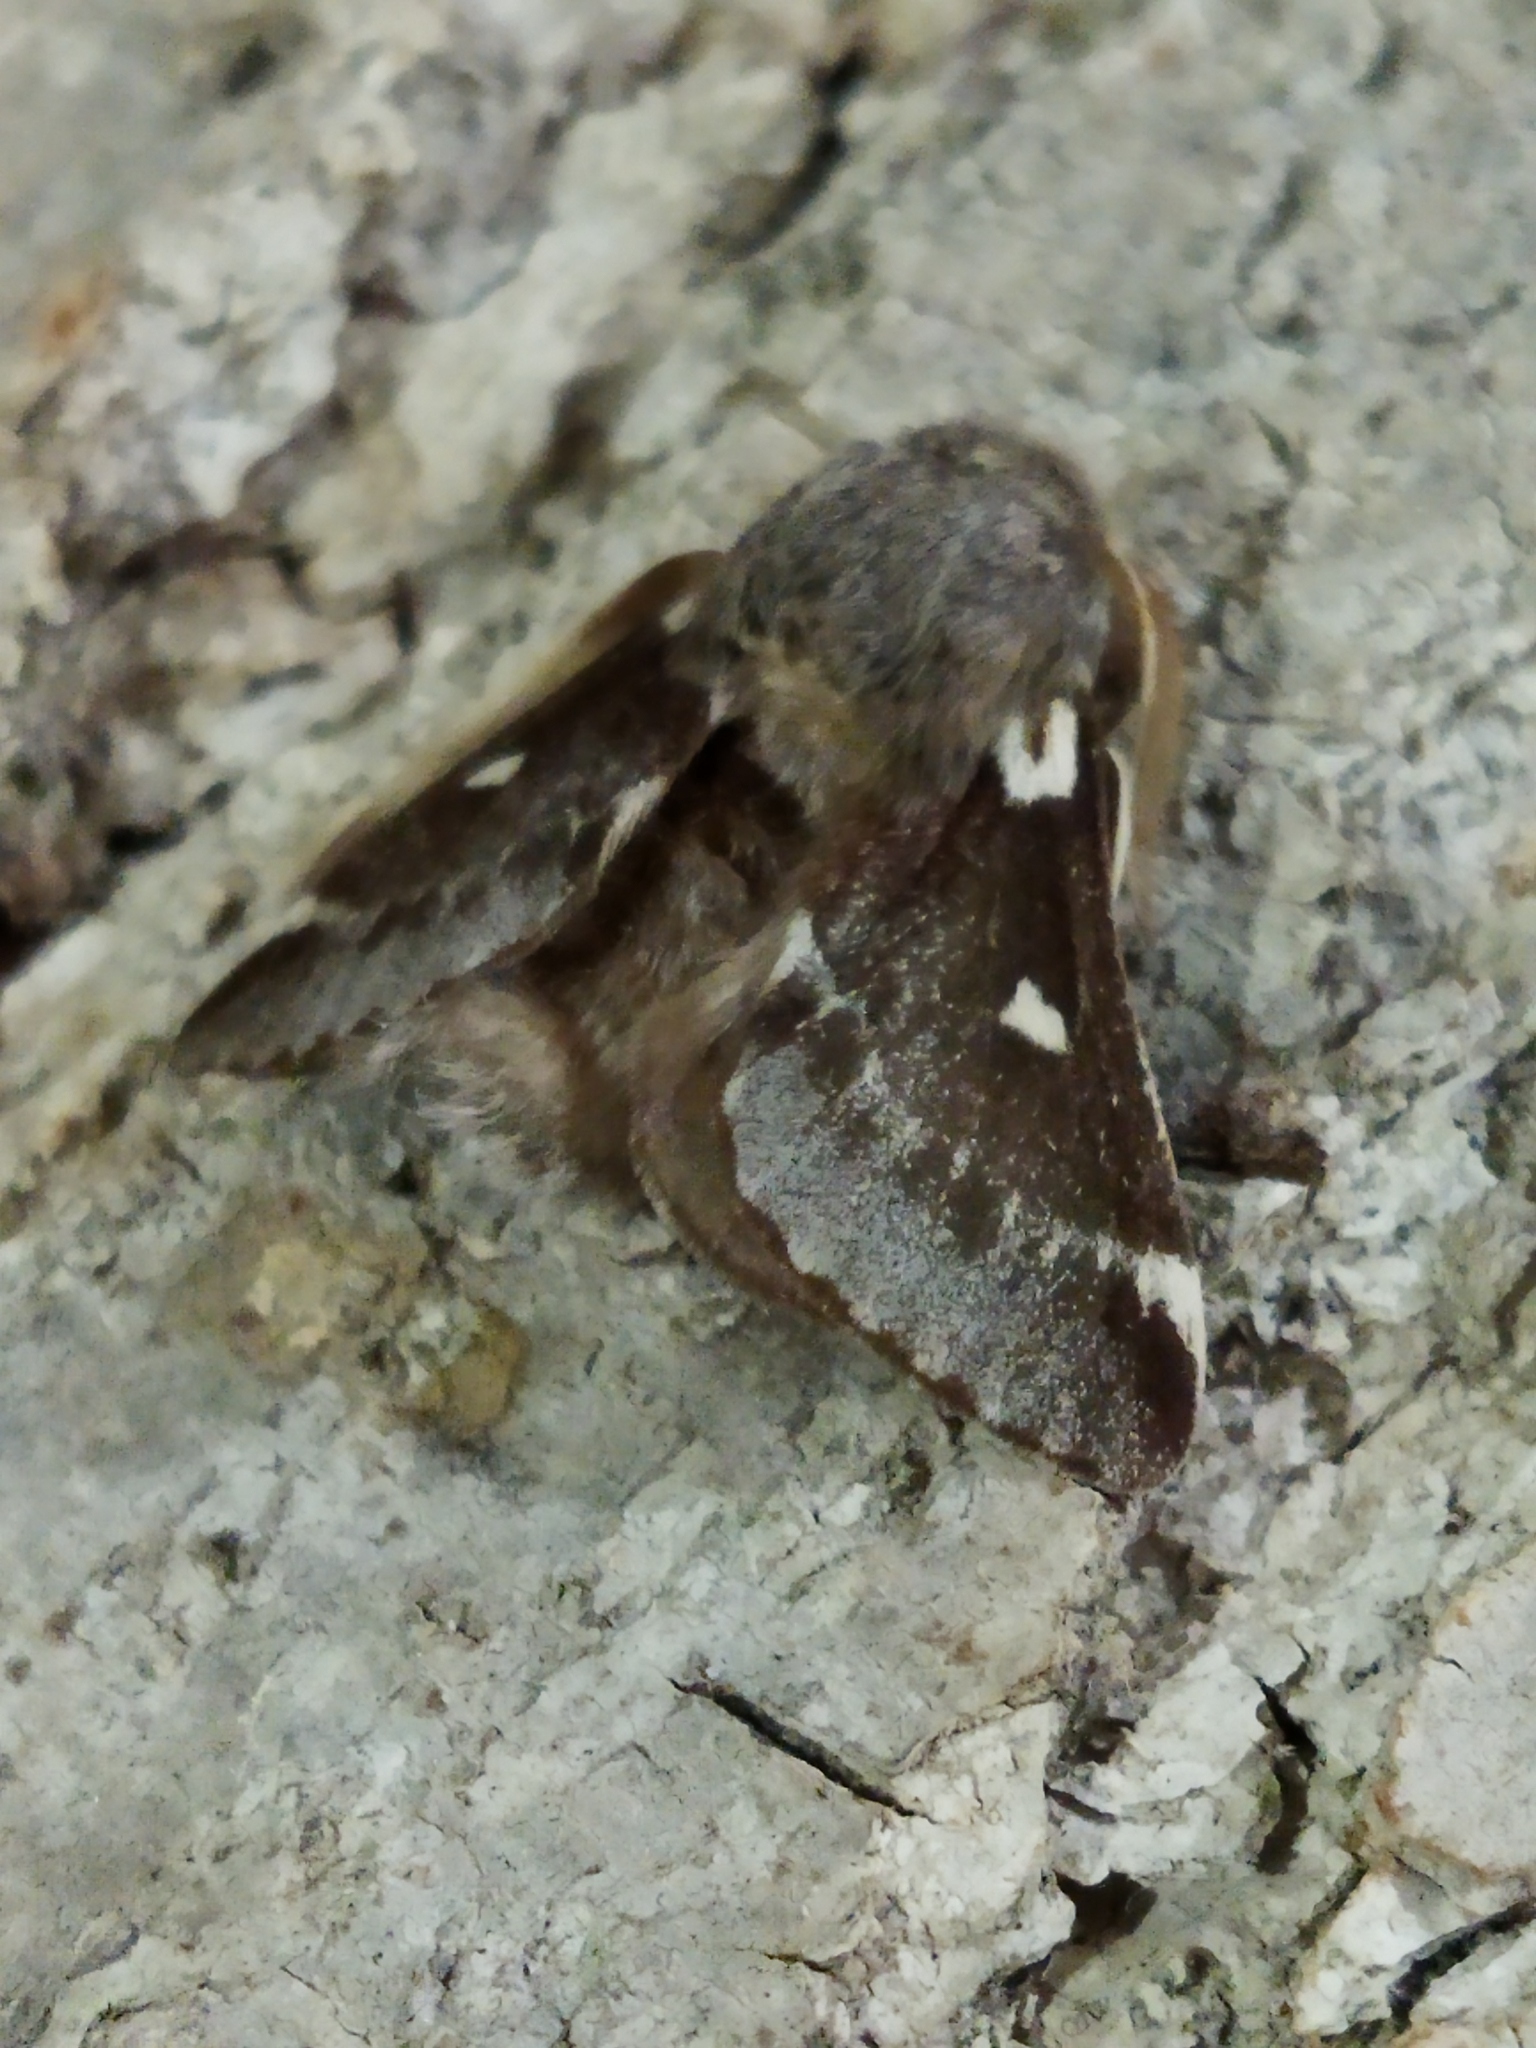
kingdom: Animalia
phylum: Arthropoda
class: Insecta
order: Lepidoptera
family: Lasiocampidae
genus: Eriogaster
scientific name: Eriogaster lanestris
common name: Small eggar
